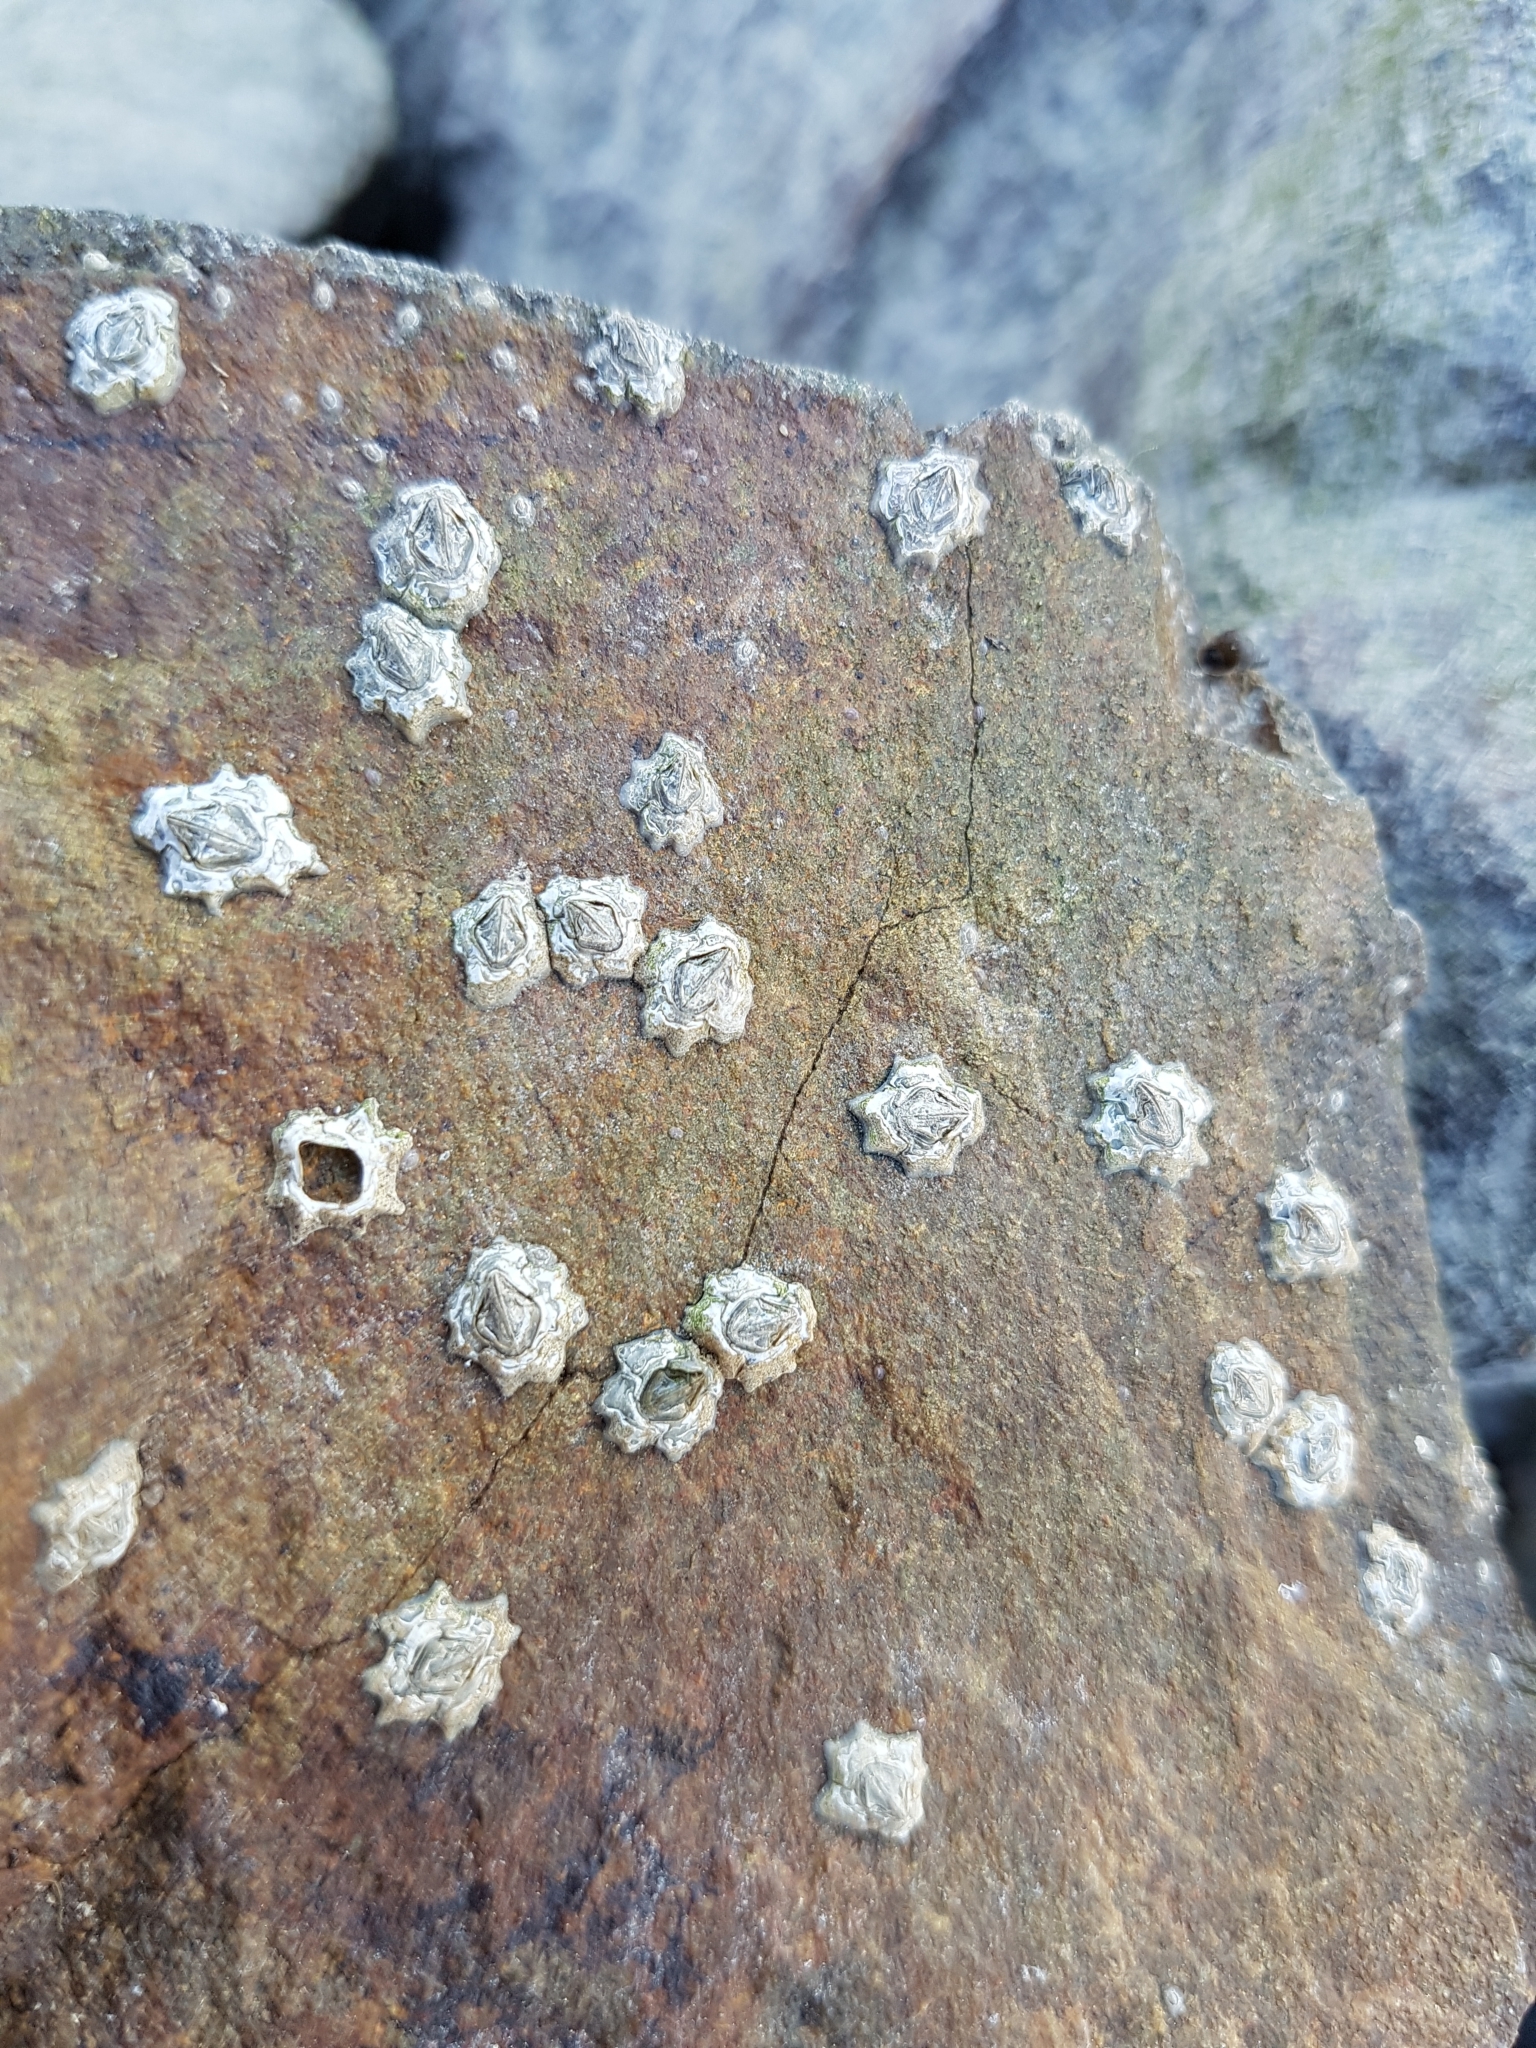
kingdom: Animalia
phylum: Arthropoda
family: Elminiidae
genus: Austrominius
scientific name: Austrominius modestus
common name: Australasian barnacle
